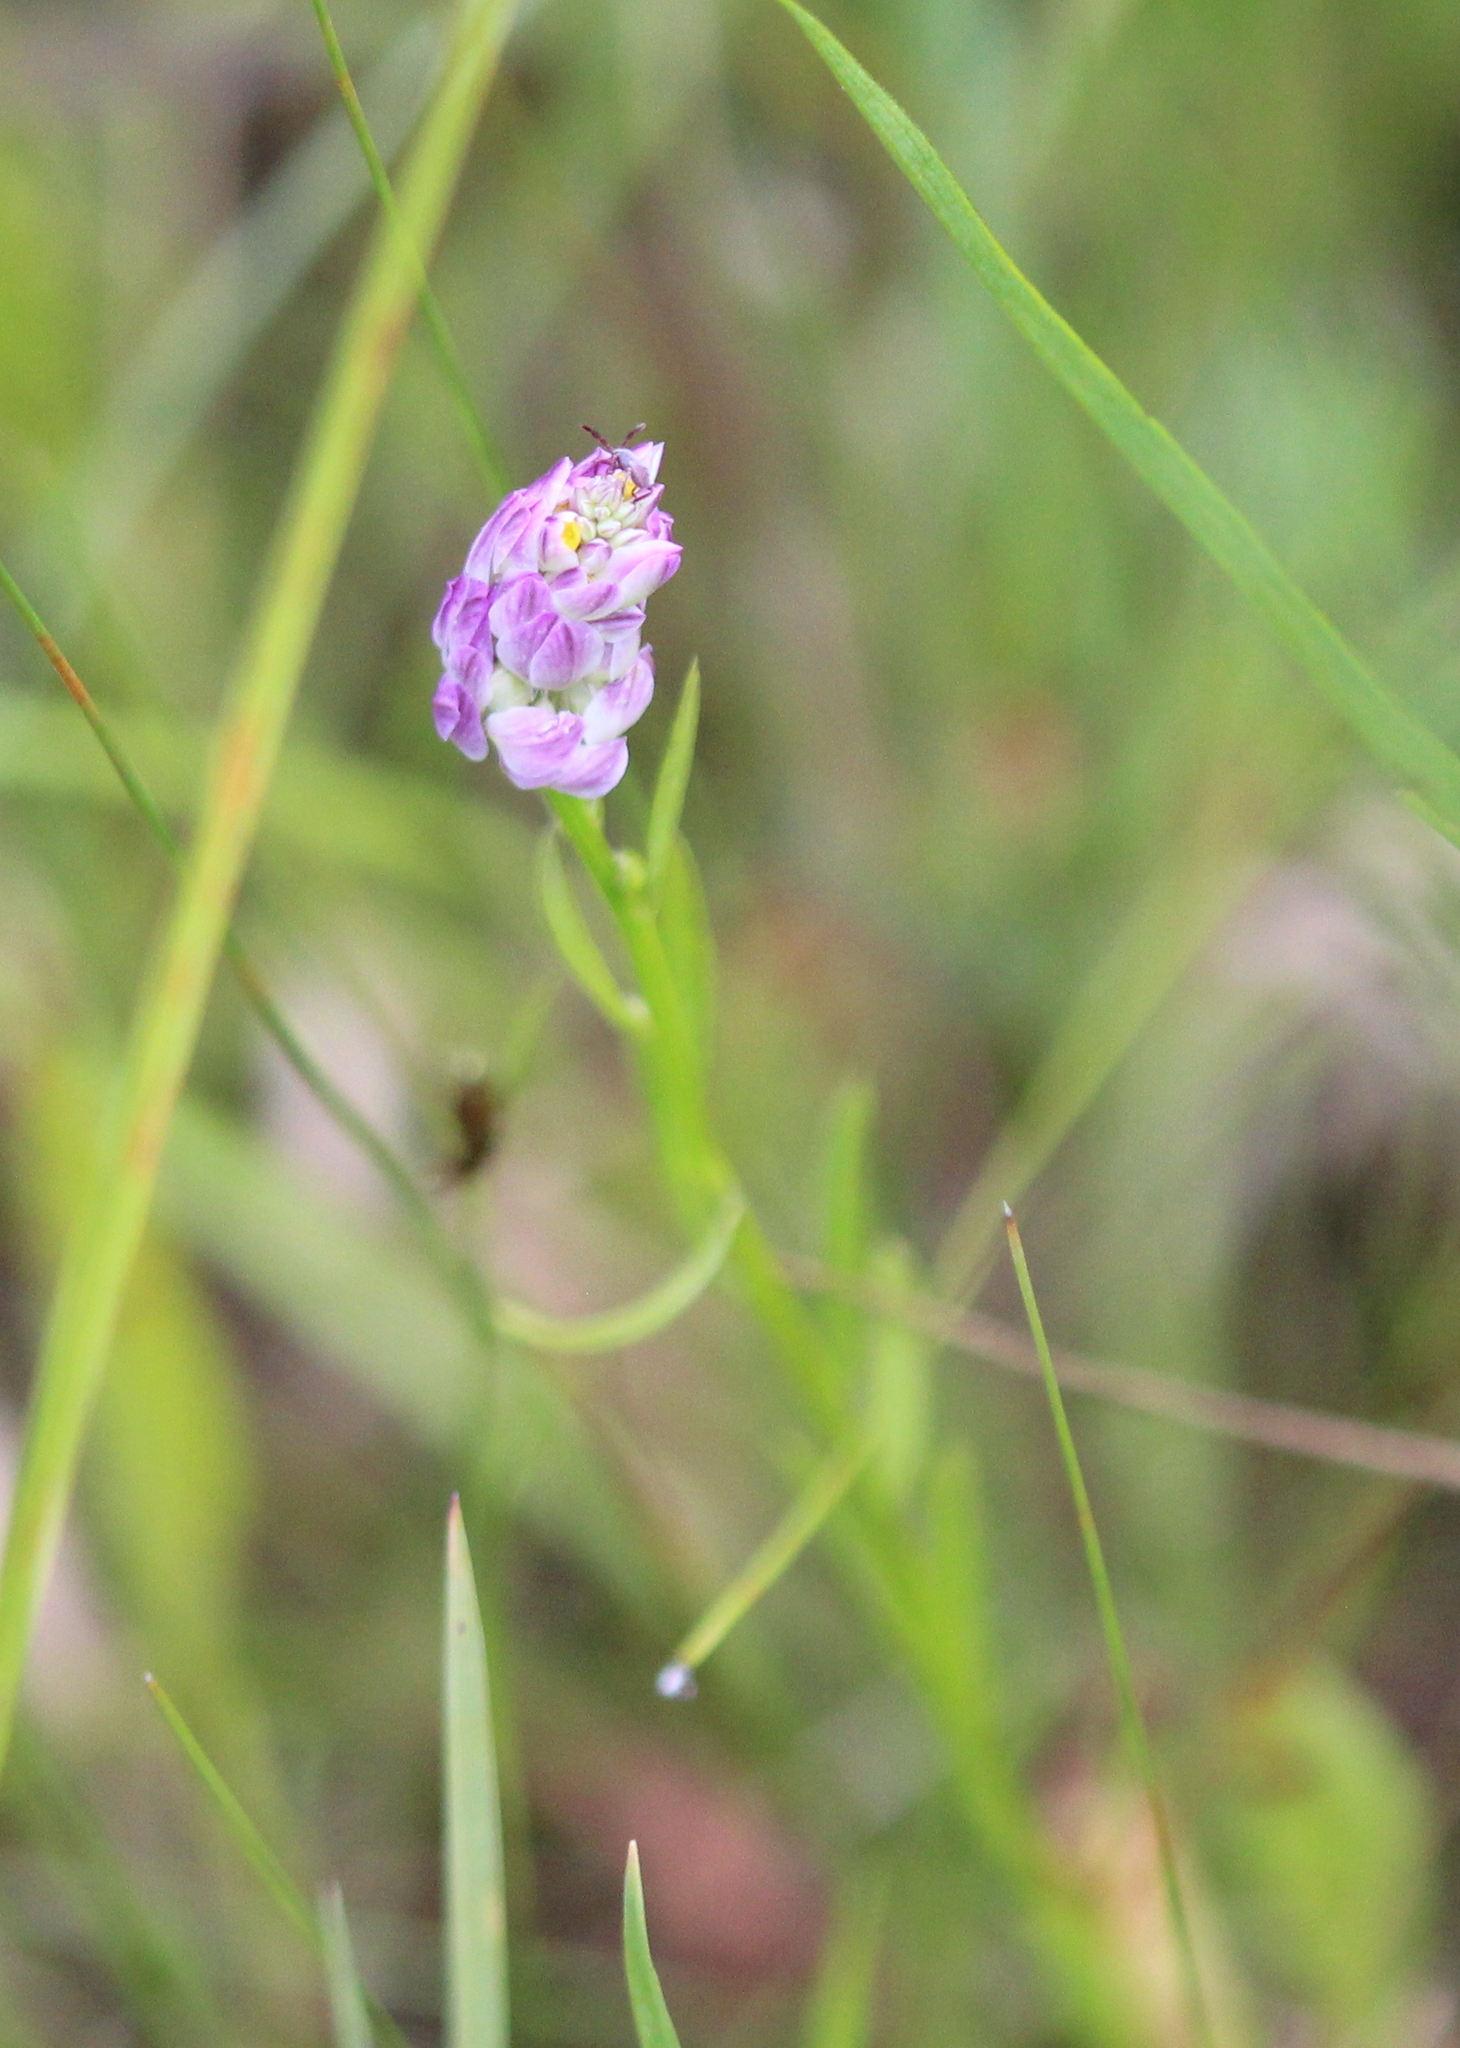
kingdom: Plantae
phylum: Tracheophyta
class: Magnoliopsida
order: Fabales
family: Polygalaceae
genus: Polygala
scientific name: Polygala sanguinea
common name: Blood milkwort
